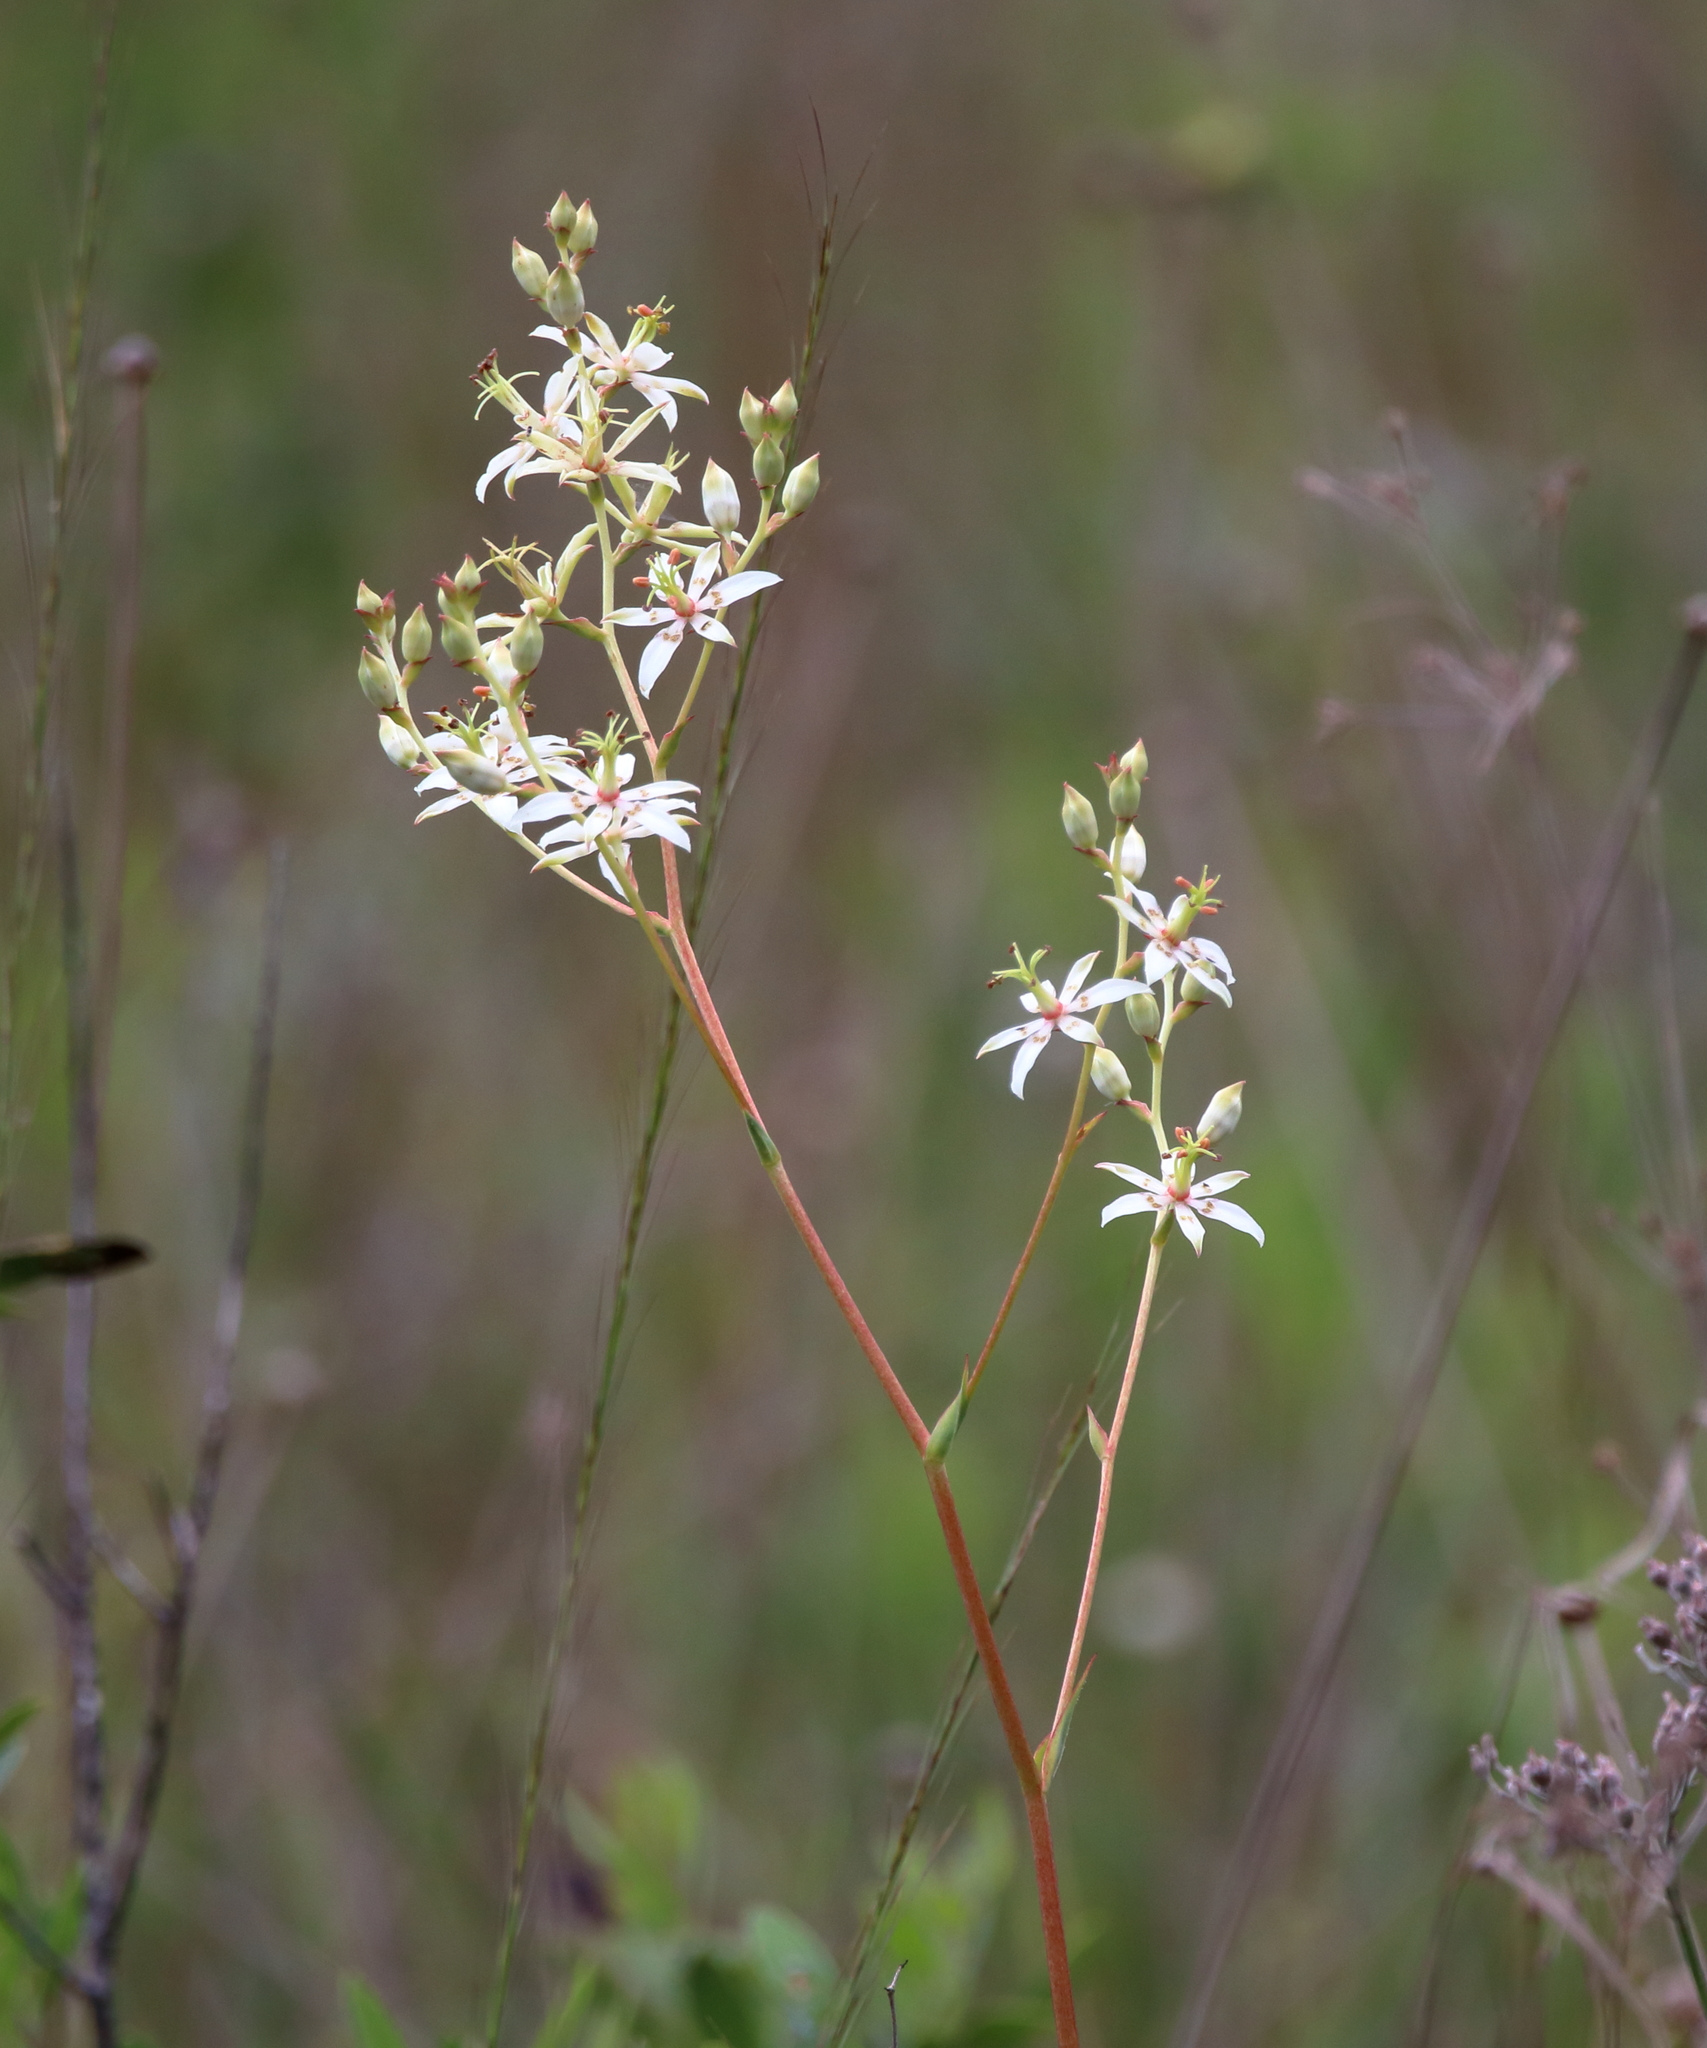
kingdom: Plantae
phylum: Tracheophyta
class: Liliopsida
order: Liliales
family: Melanthiaceae
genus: Zigadenus
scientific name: Zigadenus glaberrimus
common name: Sandbog death camas
